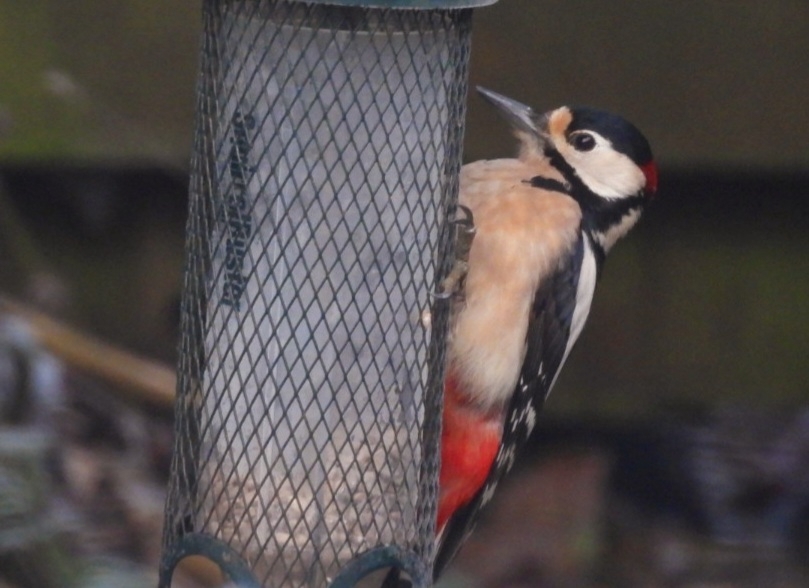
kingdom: Animalia
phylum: Chordata
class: Aves
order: Piciformes
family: Picidae
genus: Dendrocopos
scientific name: Dendrocopos major
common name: Great spotted woodpecker
